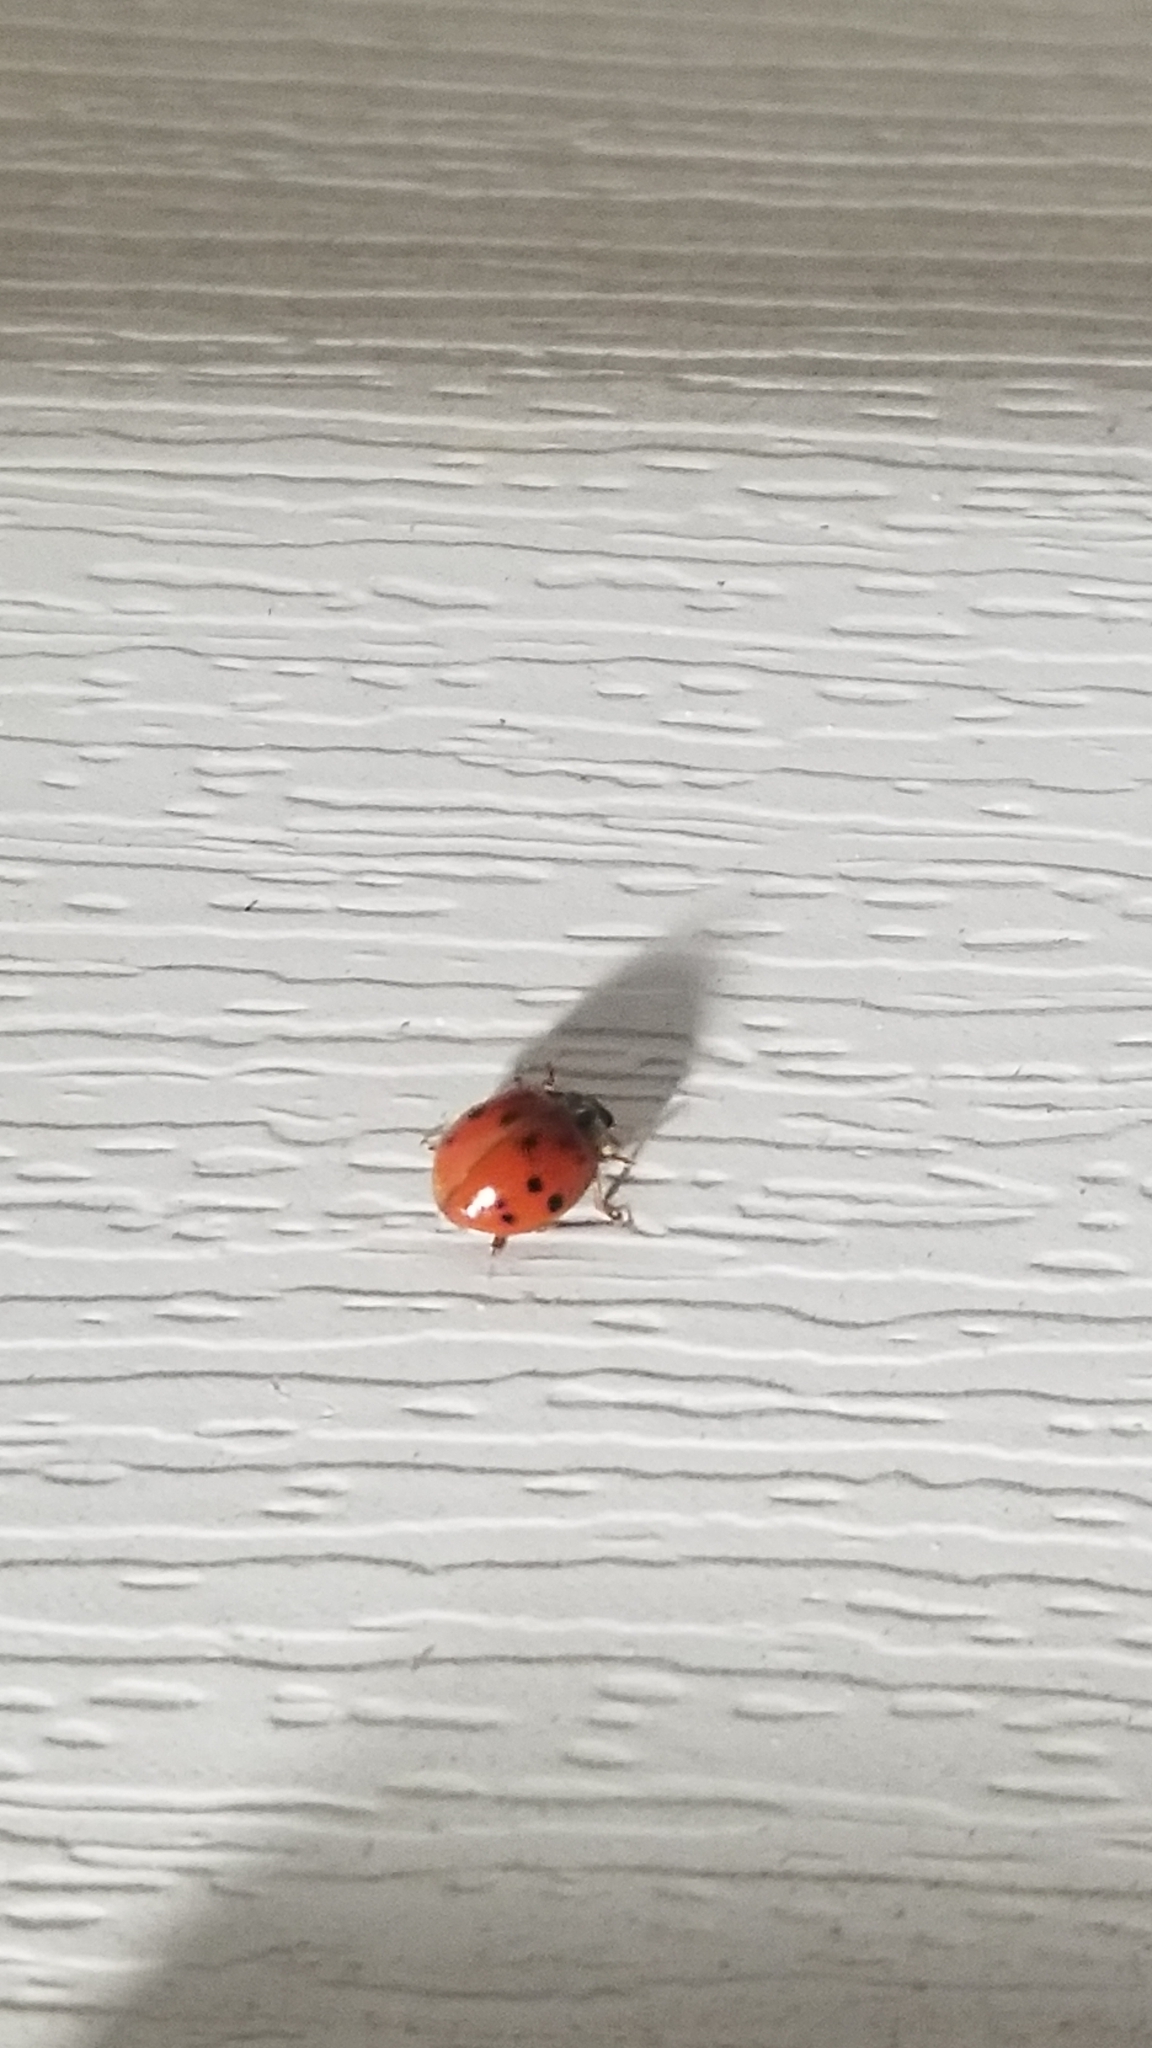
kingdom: Animalia
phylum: Arthropoda
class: Insecta
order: Coleoptera
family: Coccinellidae
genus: Harmonia
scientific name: Harmonia axyridis
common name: Harlequin ladybird
